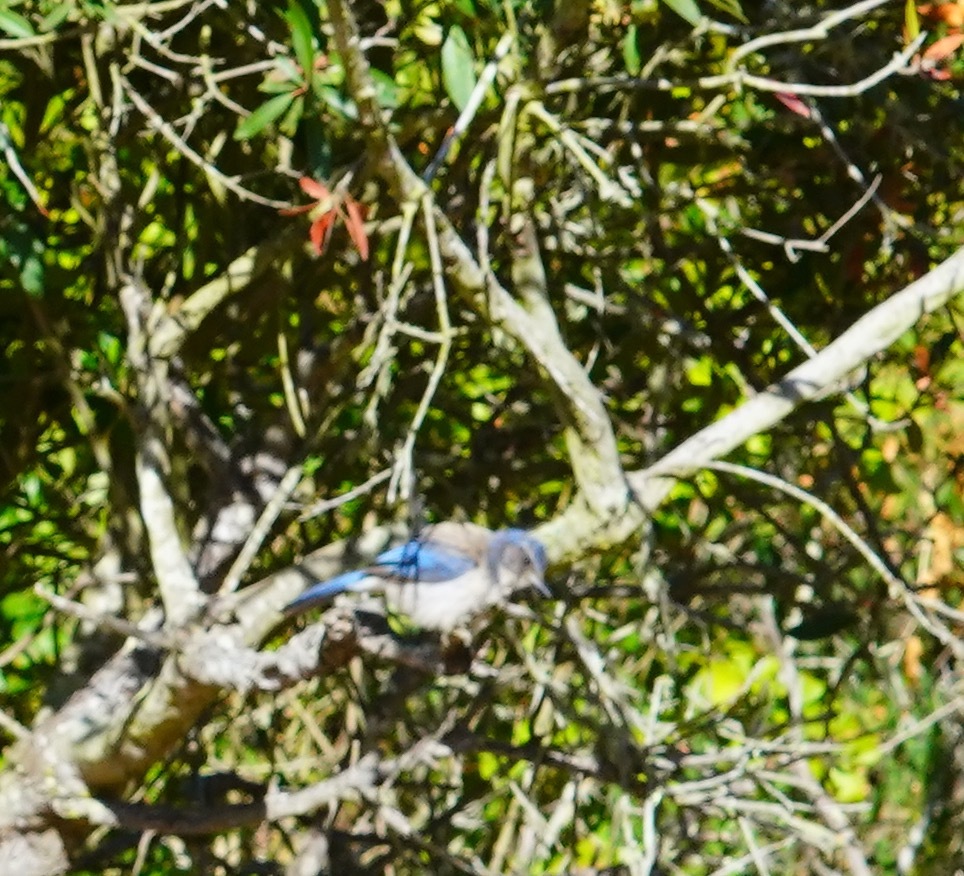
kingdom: Animalia
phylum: Chordata
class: Aves
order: Passeriformes
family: Corvidae
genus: Aphelocoma
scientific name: Aphelocoma californica
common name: California scrub-jay
